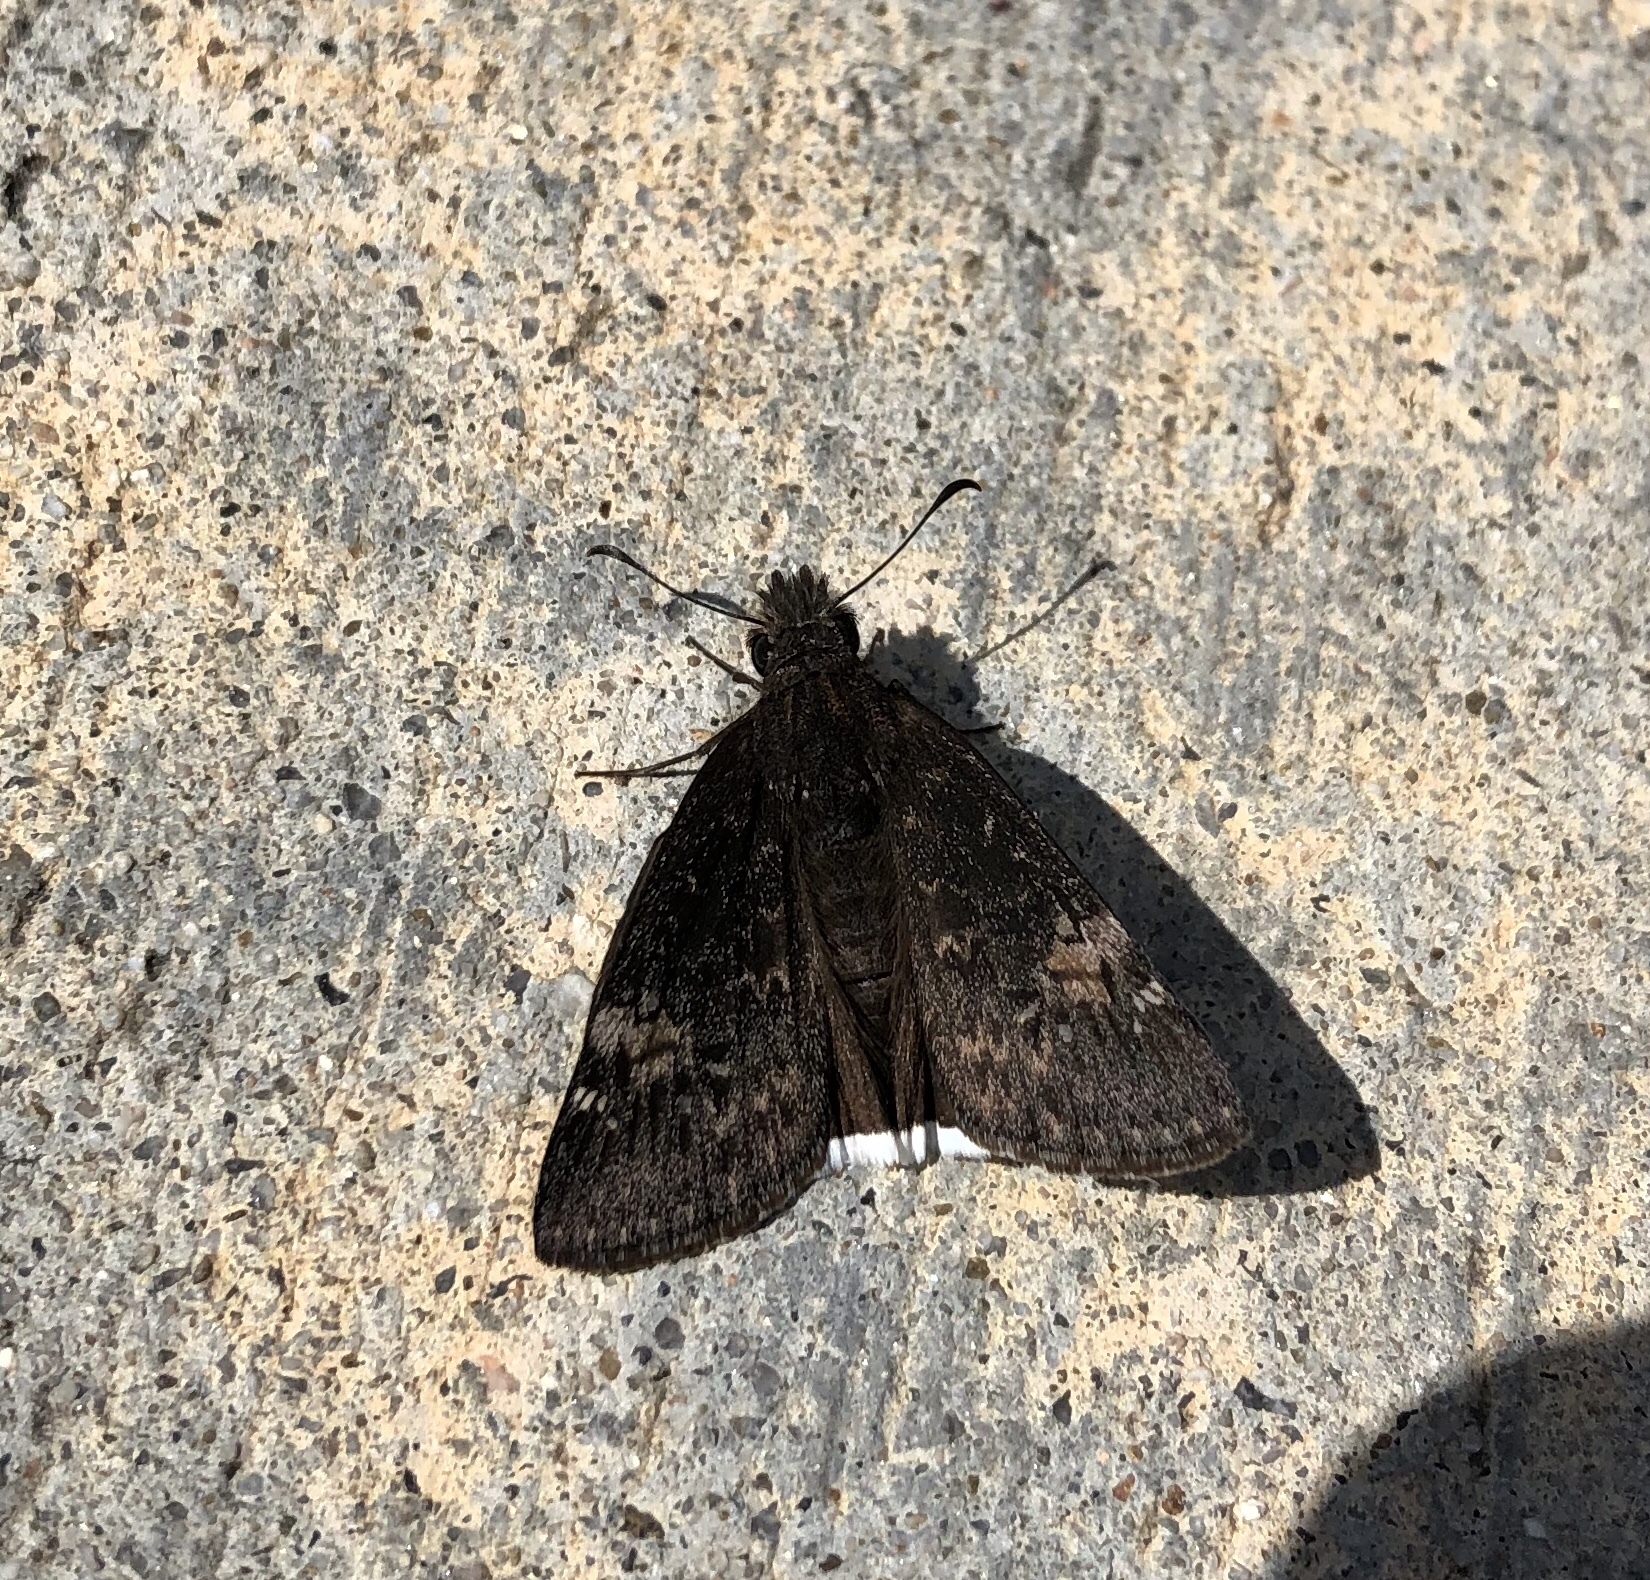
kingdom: Animalia
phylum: Arthropoda
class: Insecta
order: Lepidoptera
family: Hesperiidae
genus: Erynnis
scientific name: Erynnis funeralis
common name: Funereal duskywing
